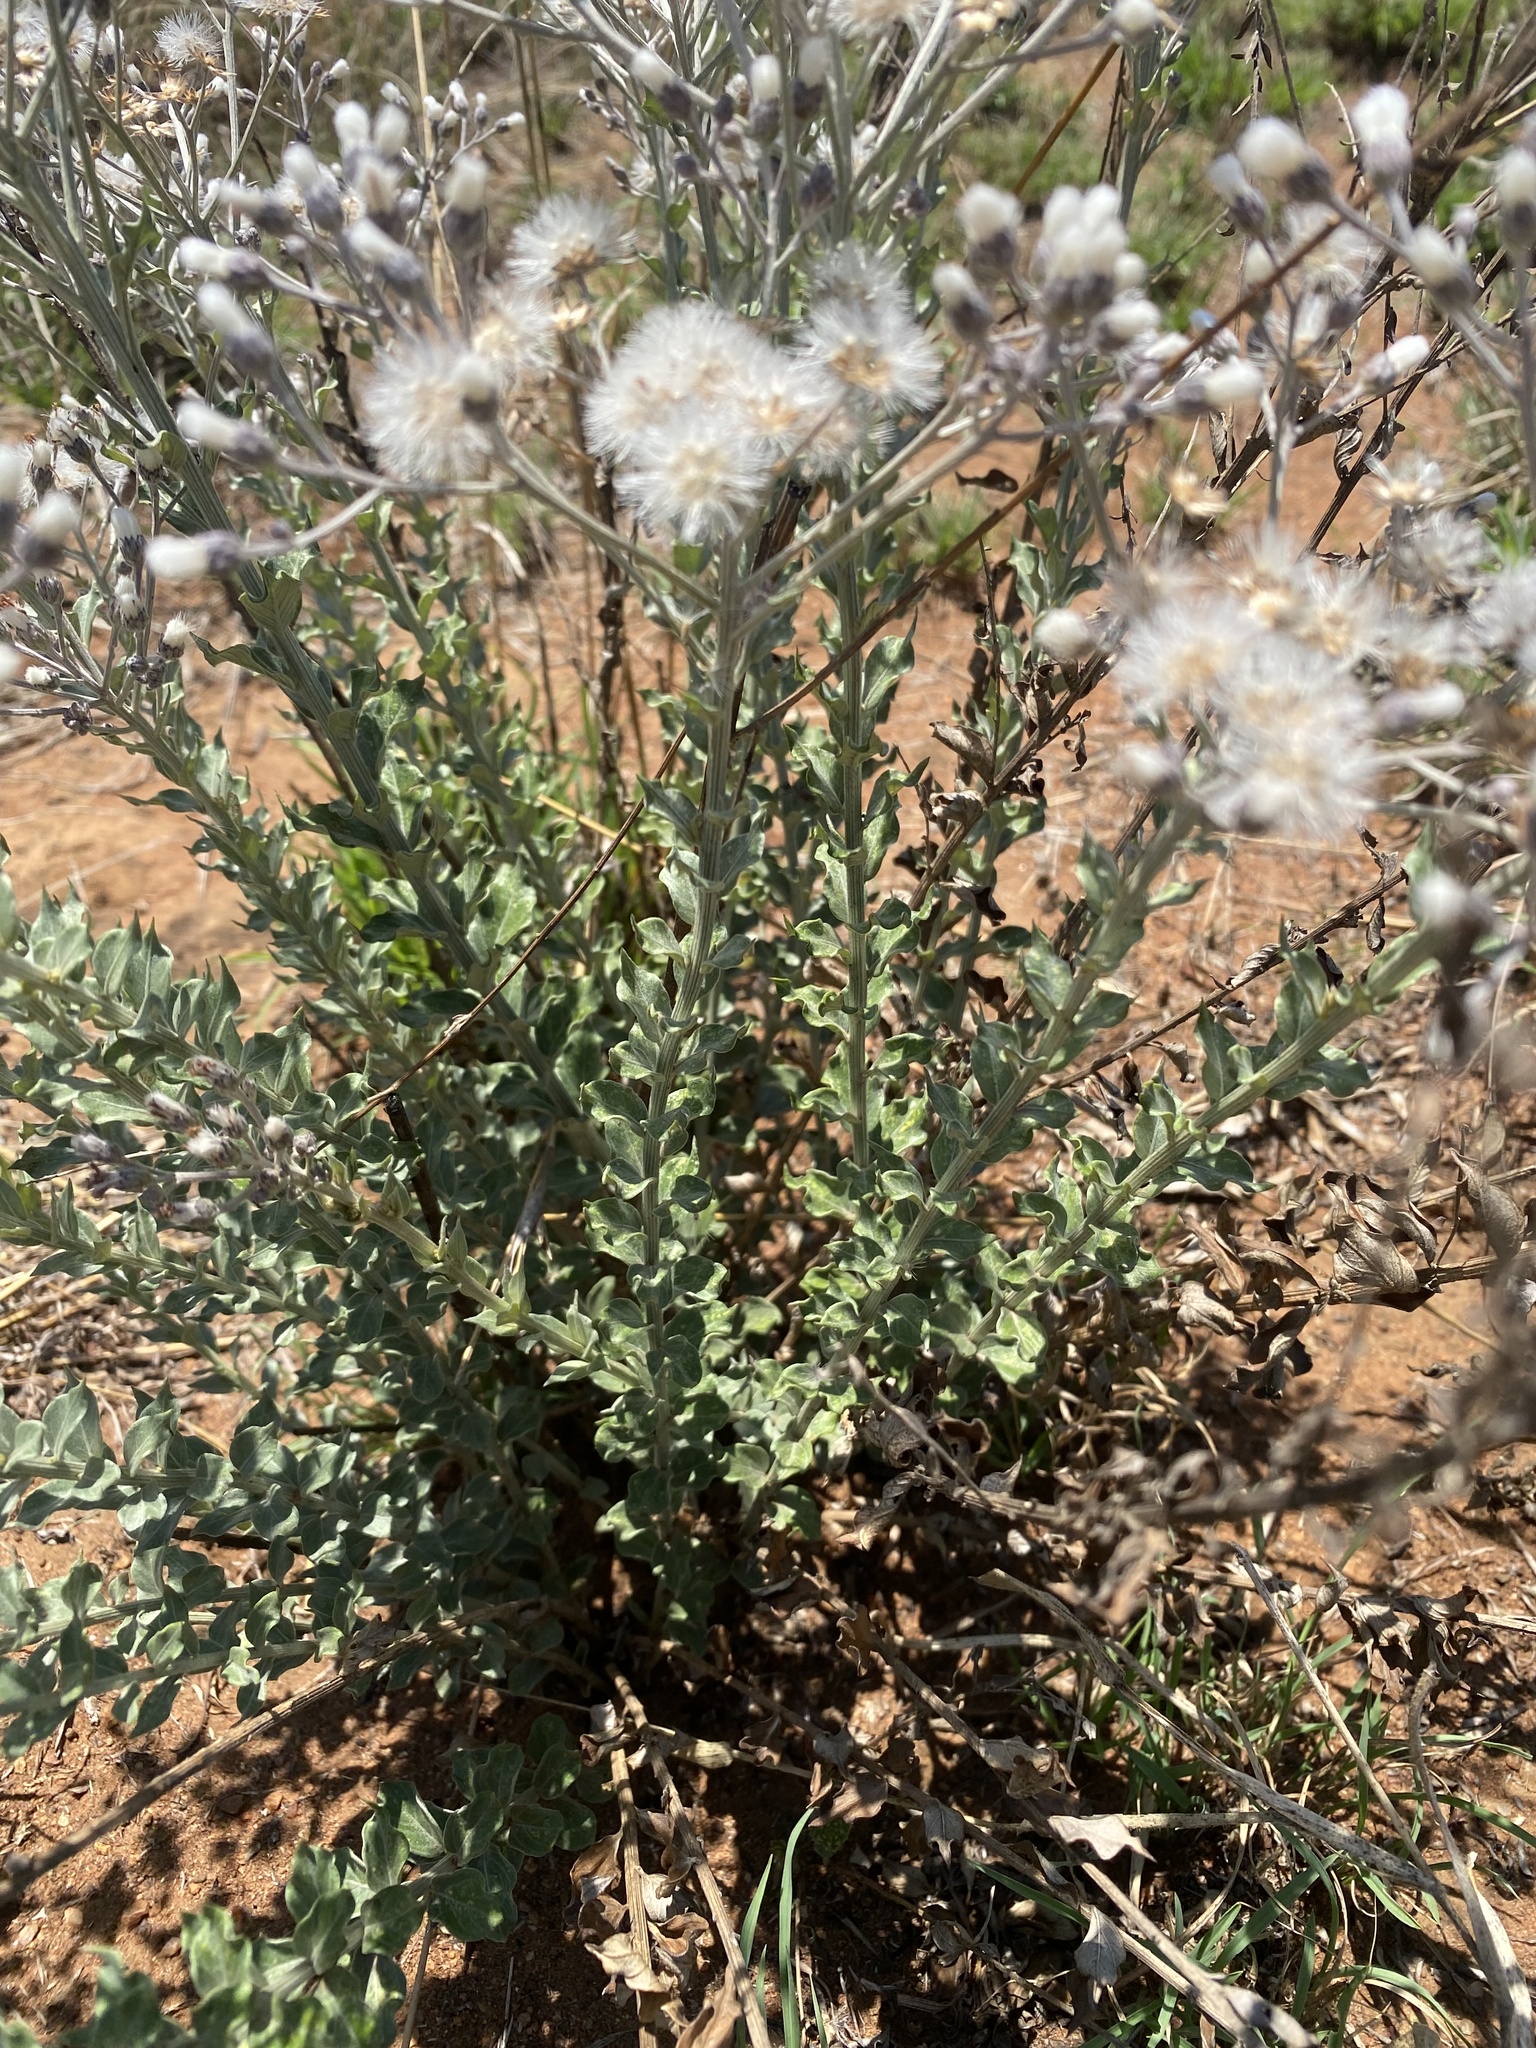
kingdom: Plantae
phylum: Tracheophyta
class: Magnoliopsida
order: Asterales
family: Asteraceae
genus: Hilliardiella
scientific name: Hilliardiella oligocephala
